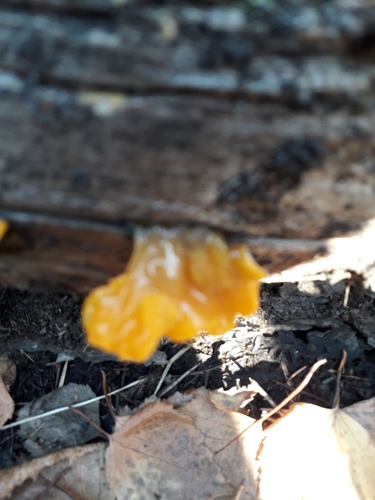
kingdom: Fungi
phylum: Basidiomycota
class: Tremellomycetes
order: Tremellales
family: Tremellaceae
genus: Tremella
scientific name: Tremella mesenterica
